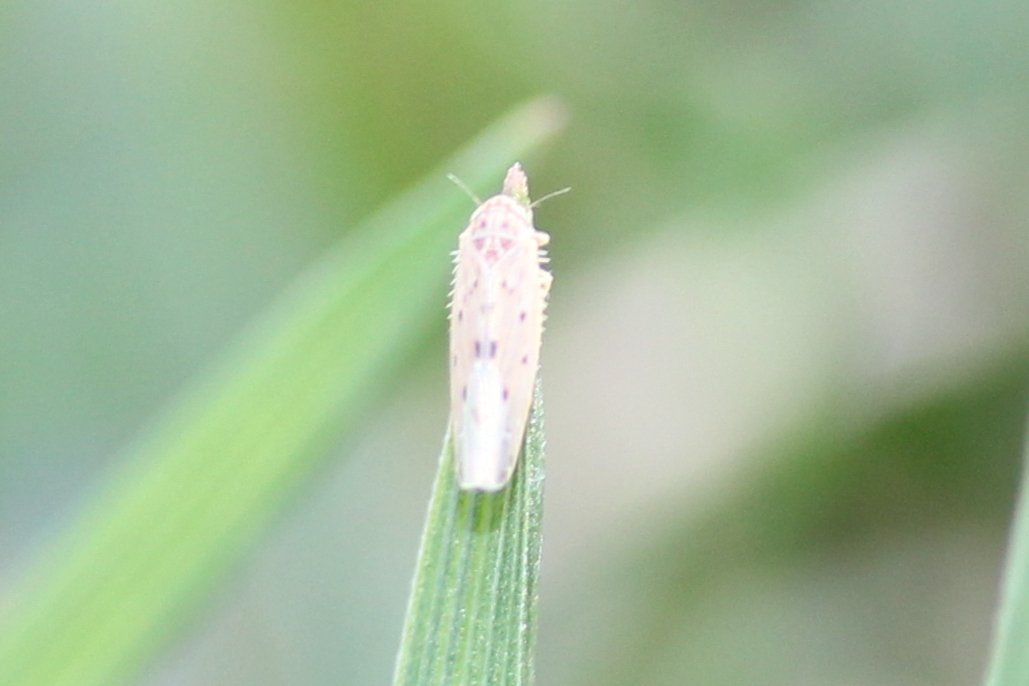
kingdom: Animalia
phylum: Arthropoda
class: Insecta
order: Hemiptera
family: Cicadellidae
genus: Balclutha
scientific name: Balclutha confluens
